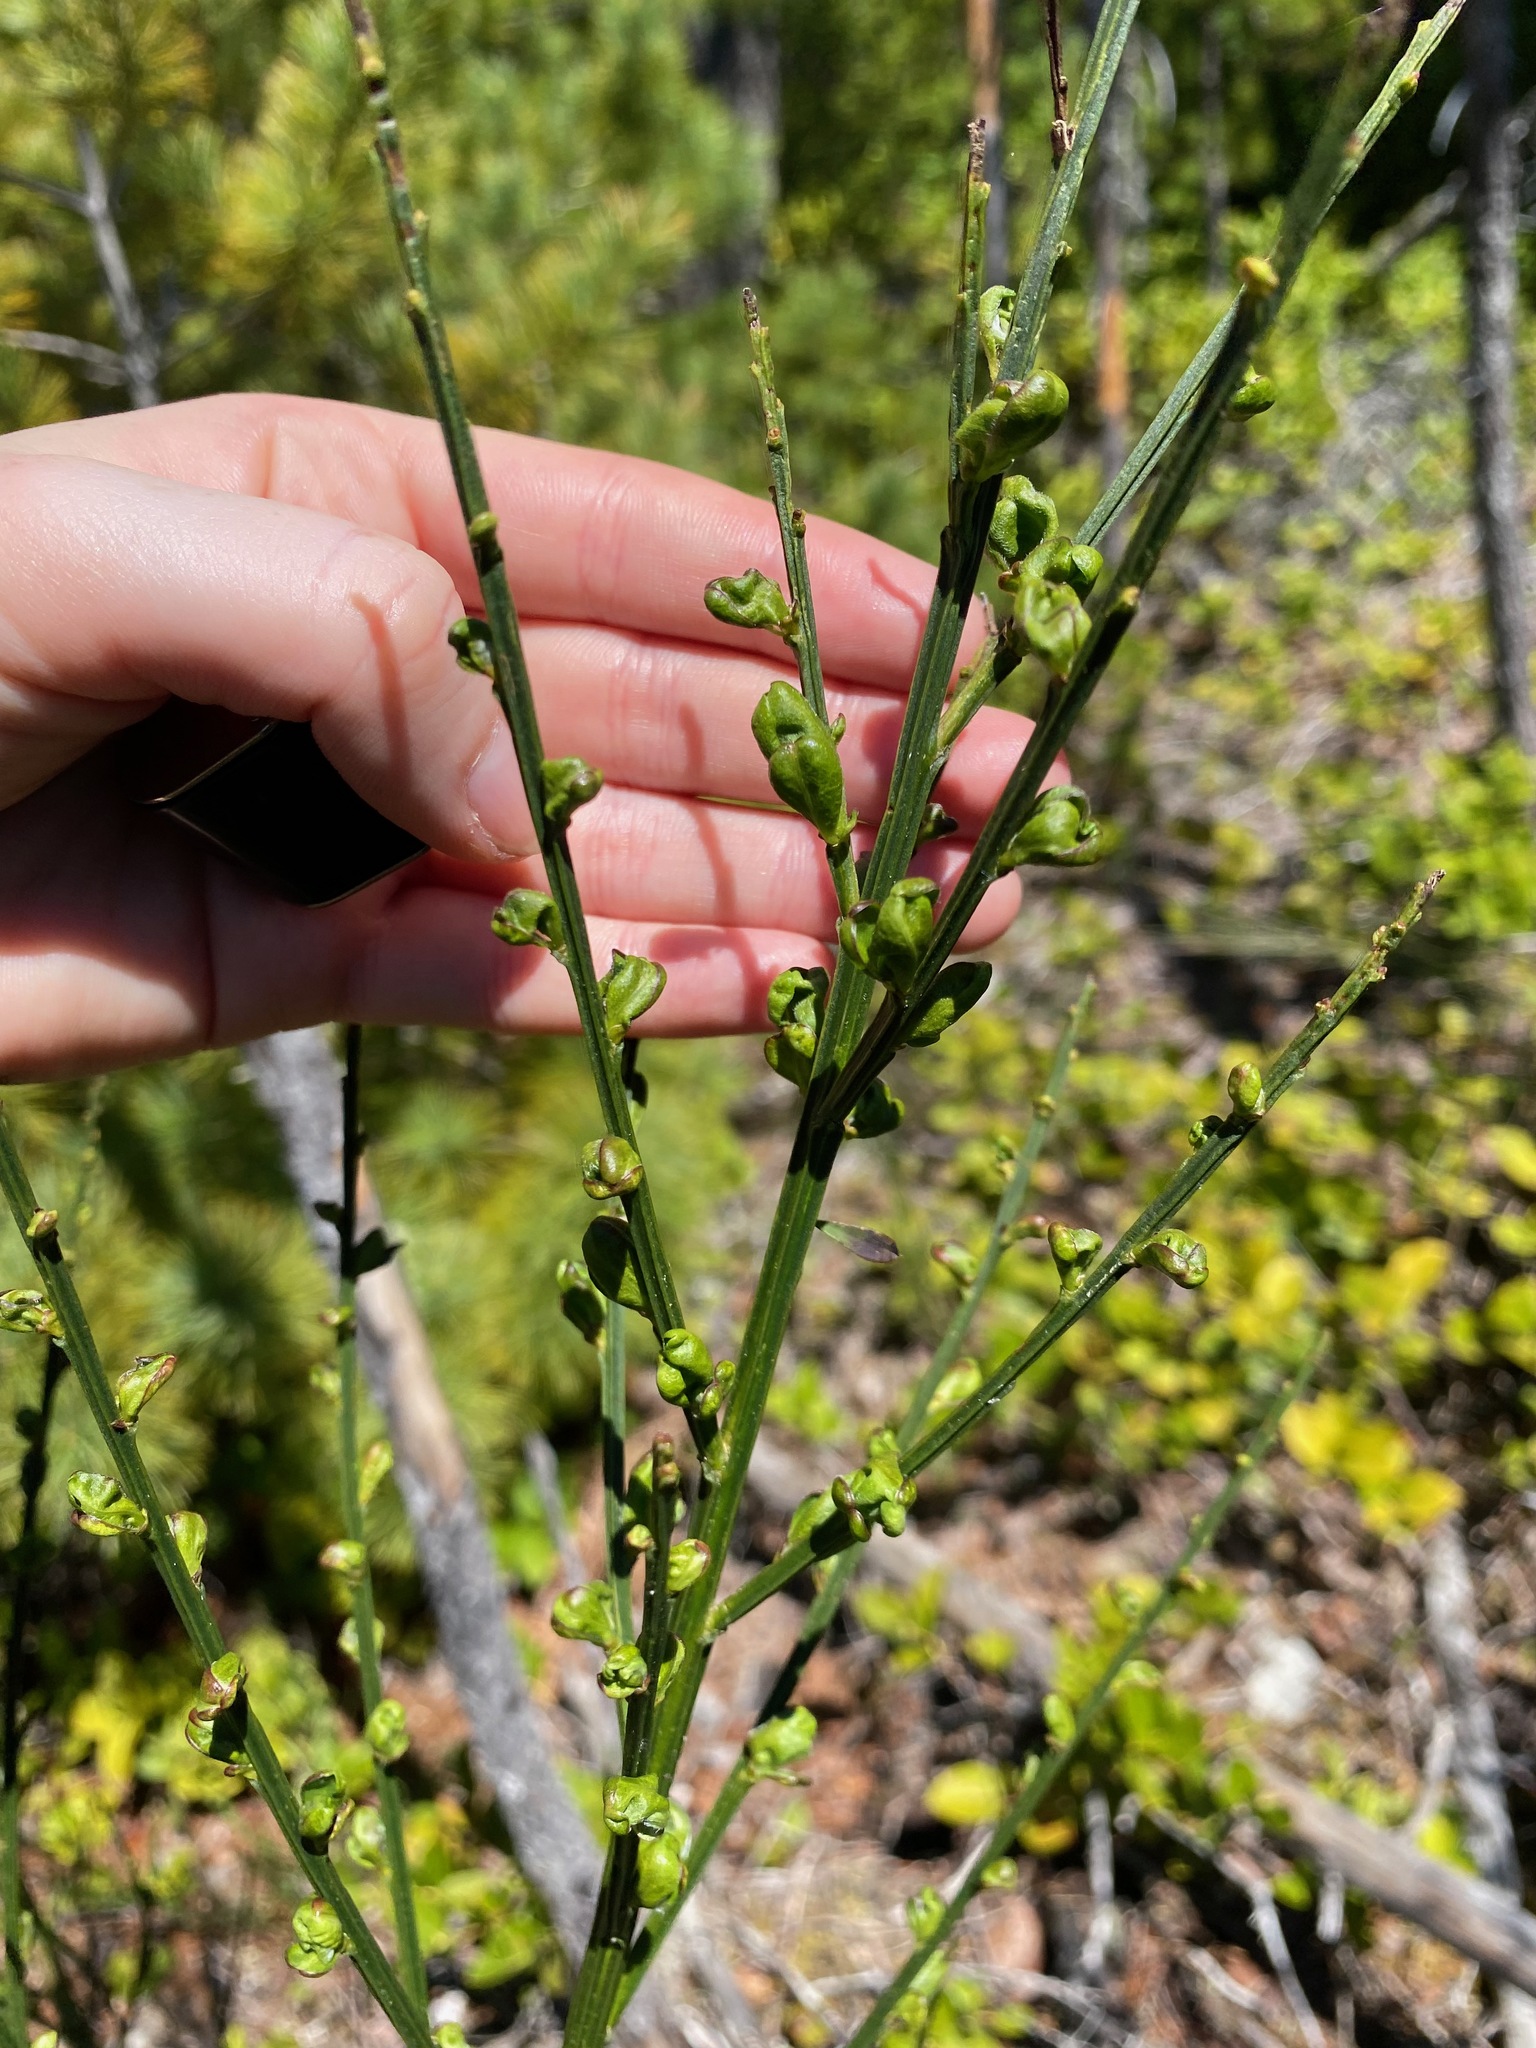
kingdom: Plantae
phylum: Tracheophyta
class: Magnoliopsida
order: Fabales
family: Fabaceae
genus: Cytisus
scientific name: Cytisus scoparius
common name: Scotch broom
